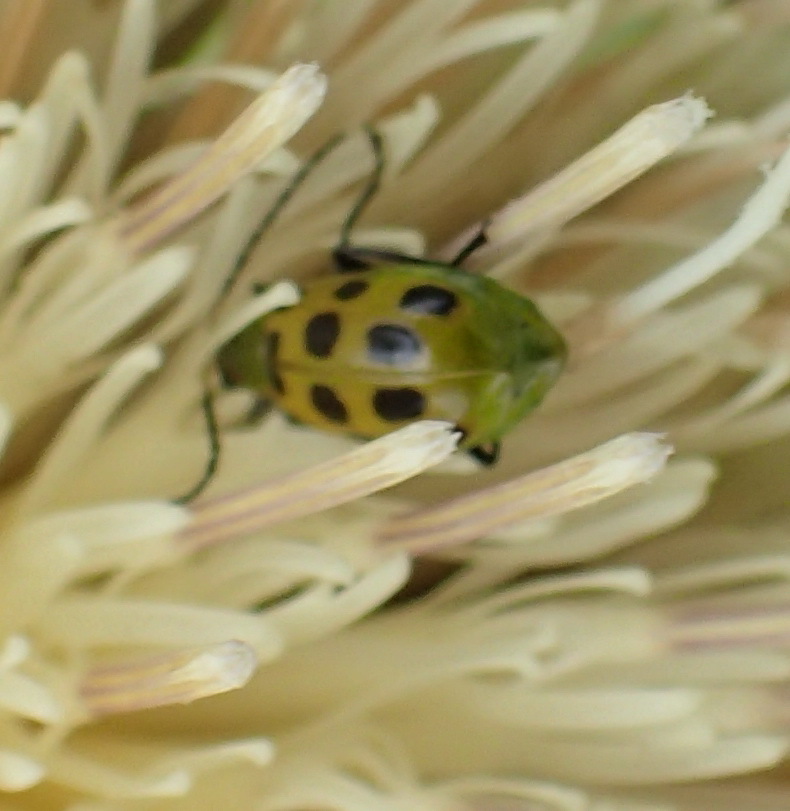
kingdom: Animalia
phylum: Arthropoda
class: Insecta
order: Coleoptera
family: Chrysomelidae
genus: Diabrotica
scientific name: Diabrotica undecimpunctata
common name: Spotted cucumber beetle
